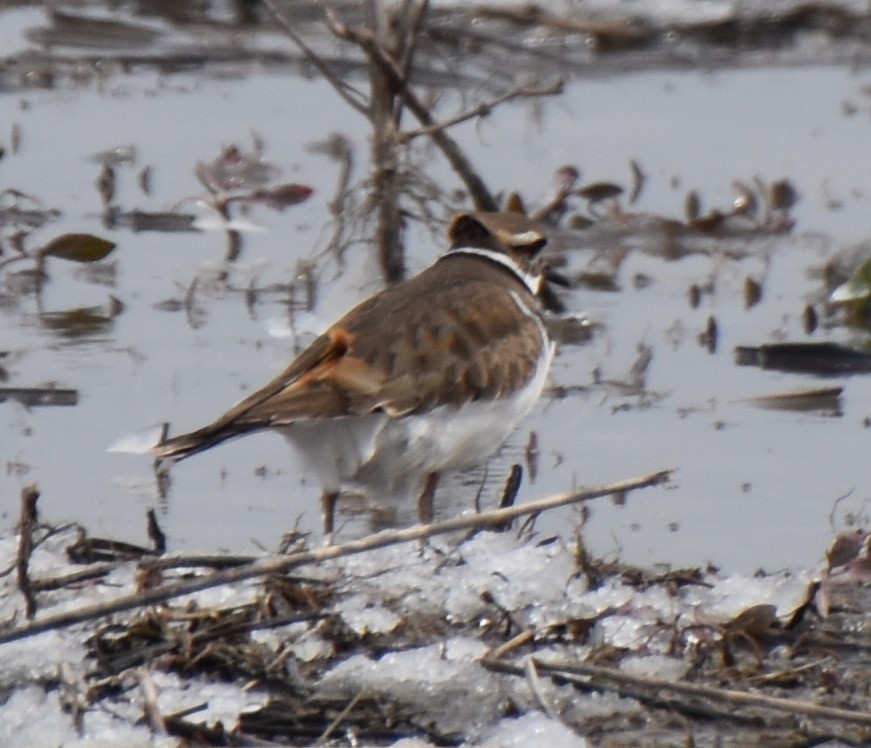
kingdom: Animalia
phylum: Chordata
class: Aves
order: Charadriiformes
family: Charadriidae
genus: Charadrius
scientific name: Charadrius vociferus
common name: Killdeer
